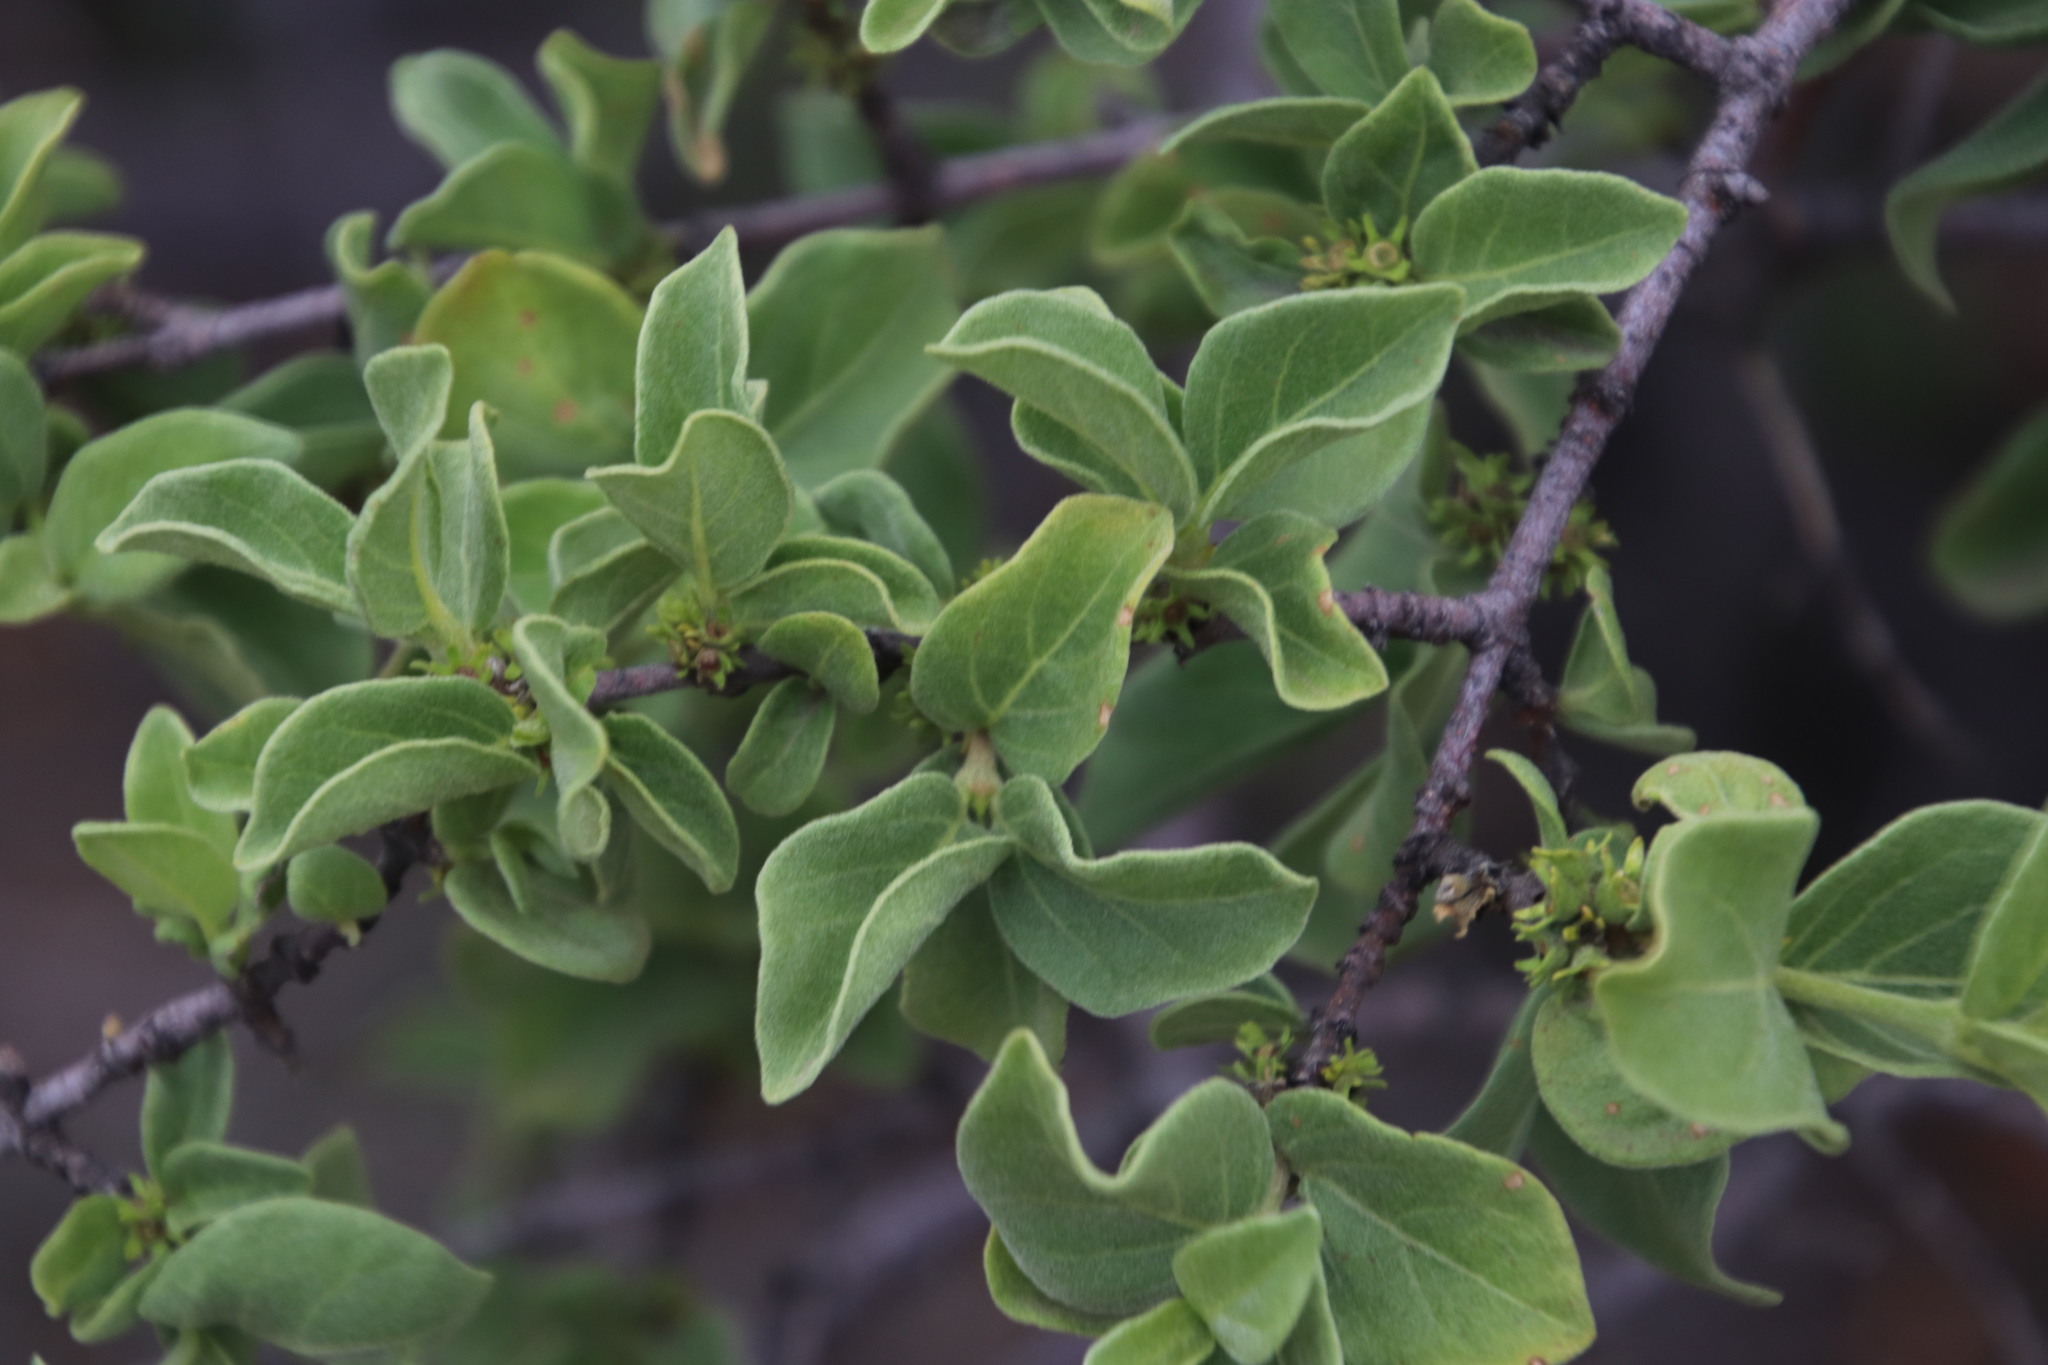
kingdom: Plantae
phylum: Tracheophyta
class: Magnoliopsida
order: Gentianales
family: Rubiaceae
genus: Vangueria
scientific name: Vangueria parvifolia
